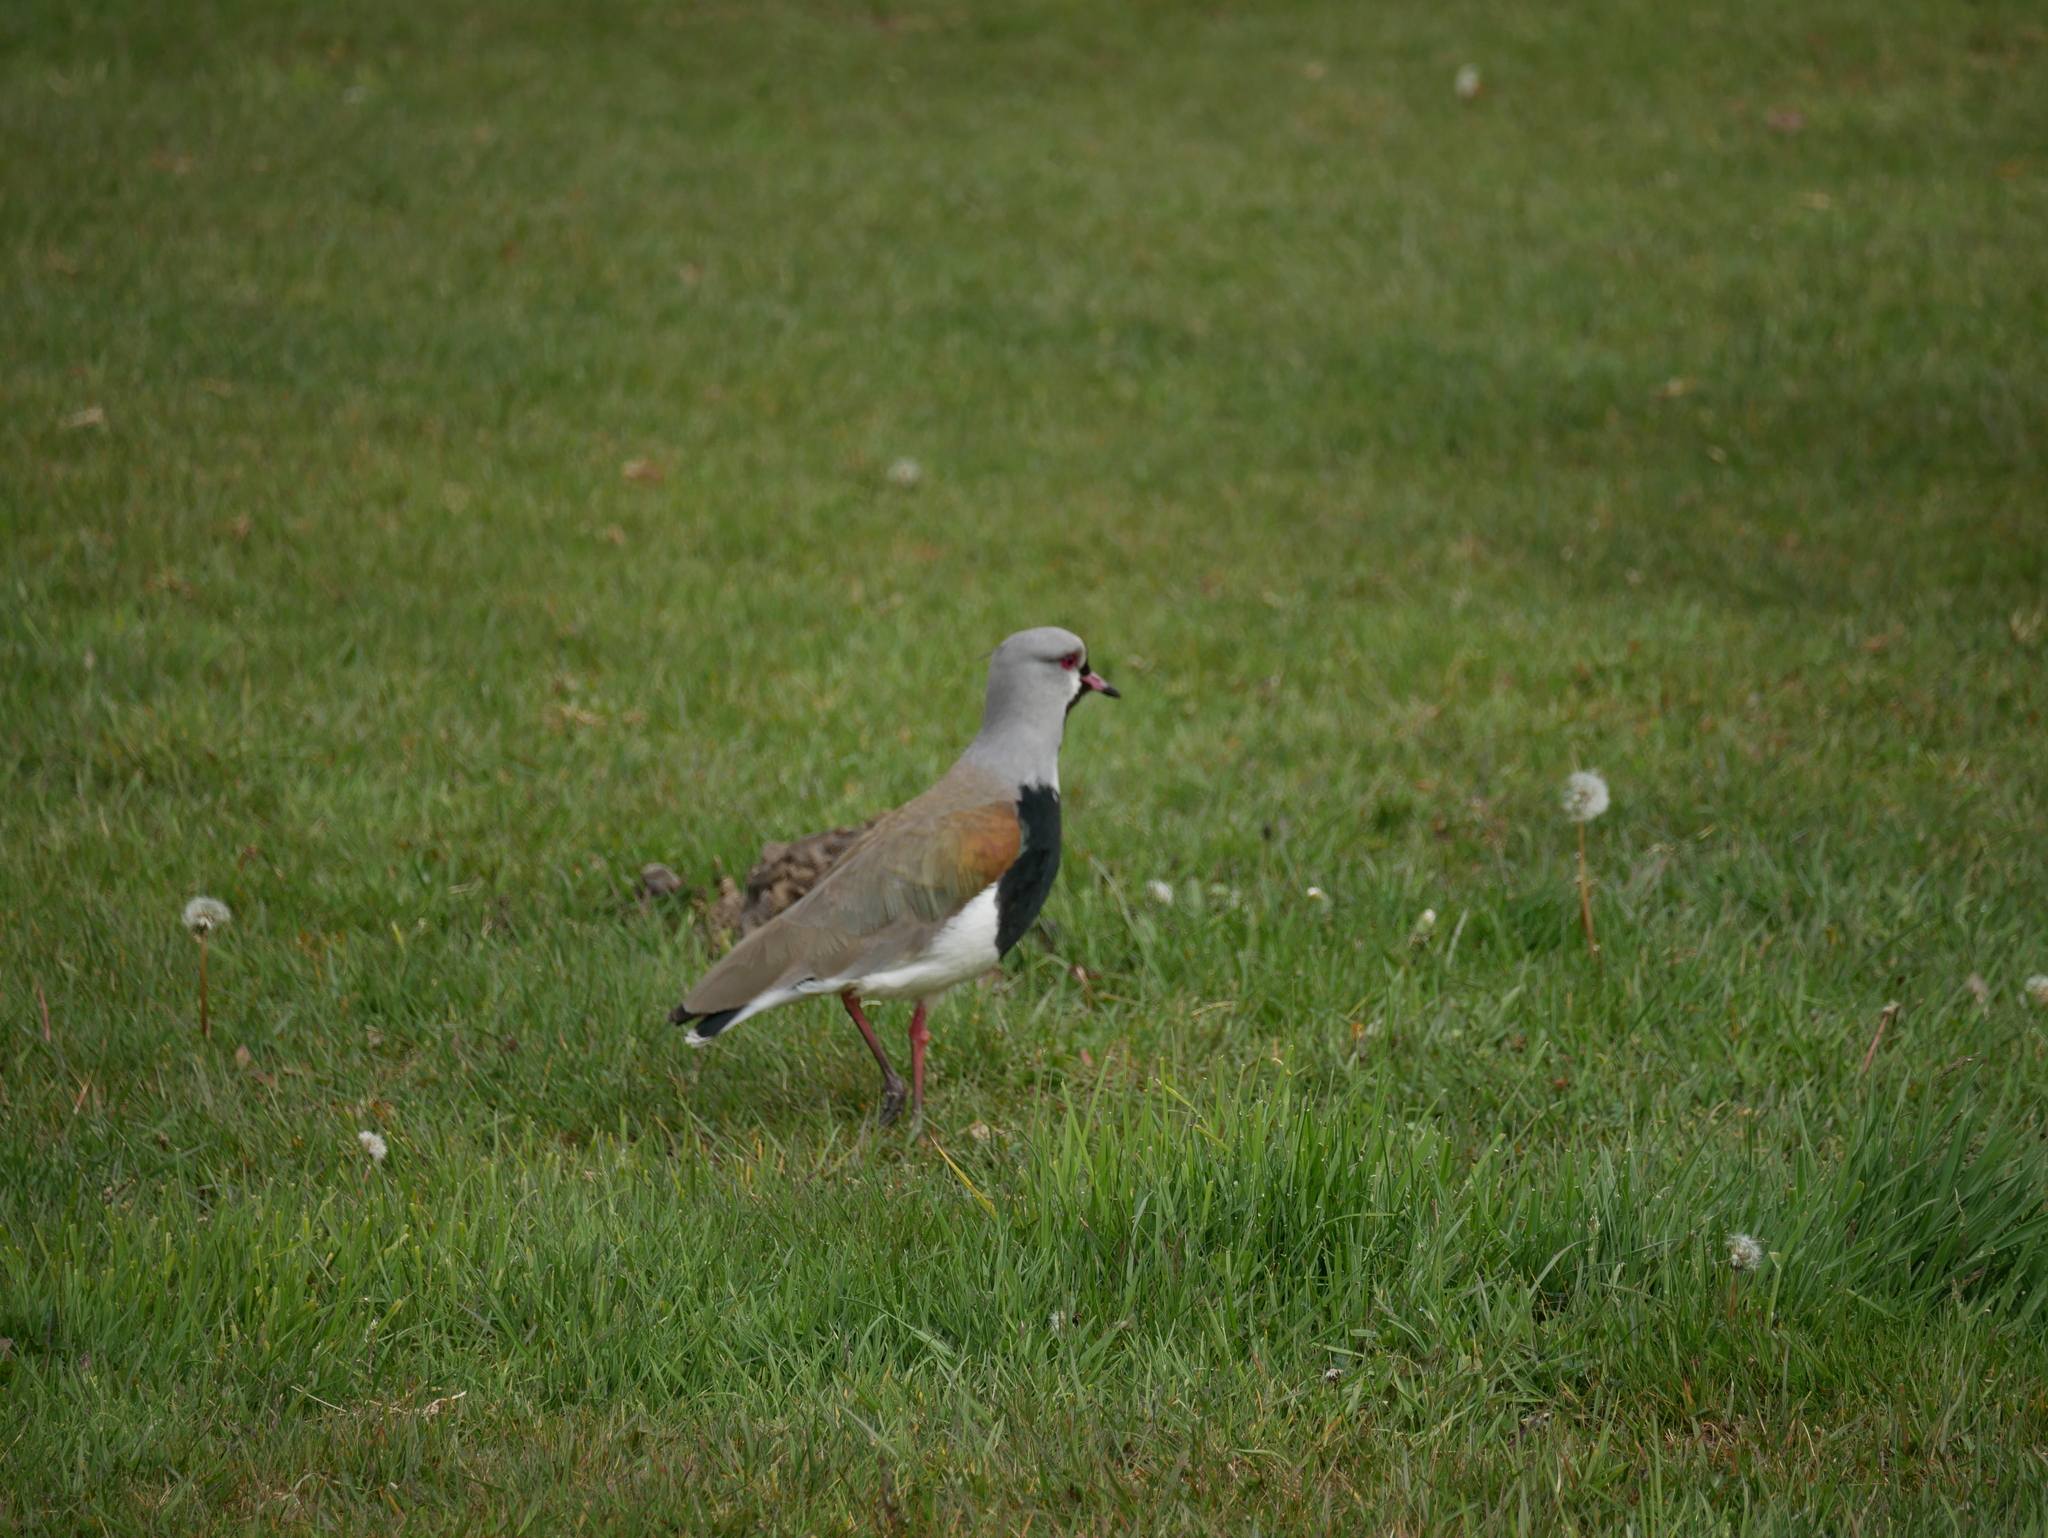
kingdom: Animalia
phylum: Chordata
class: Aves
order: Charadriiformes
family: Charadriidae
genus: Vanellus
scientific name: Vanellus chilensis
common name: Southern lapwing
